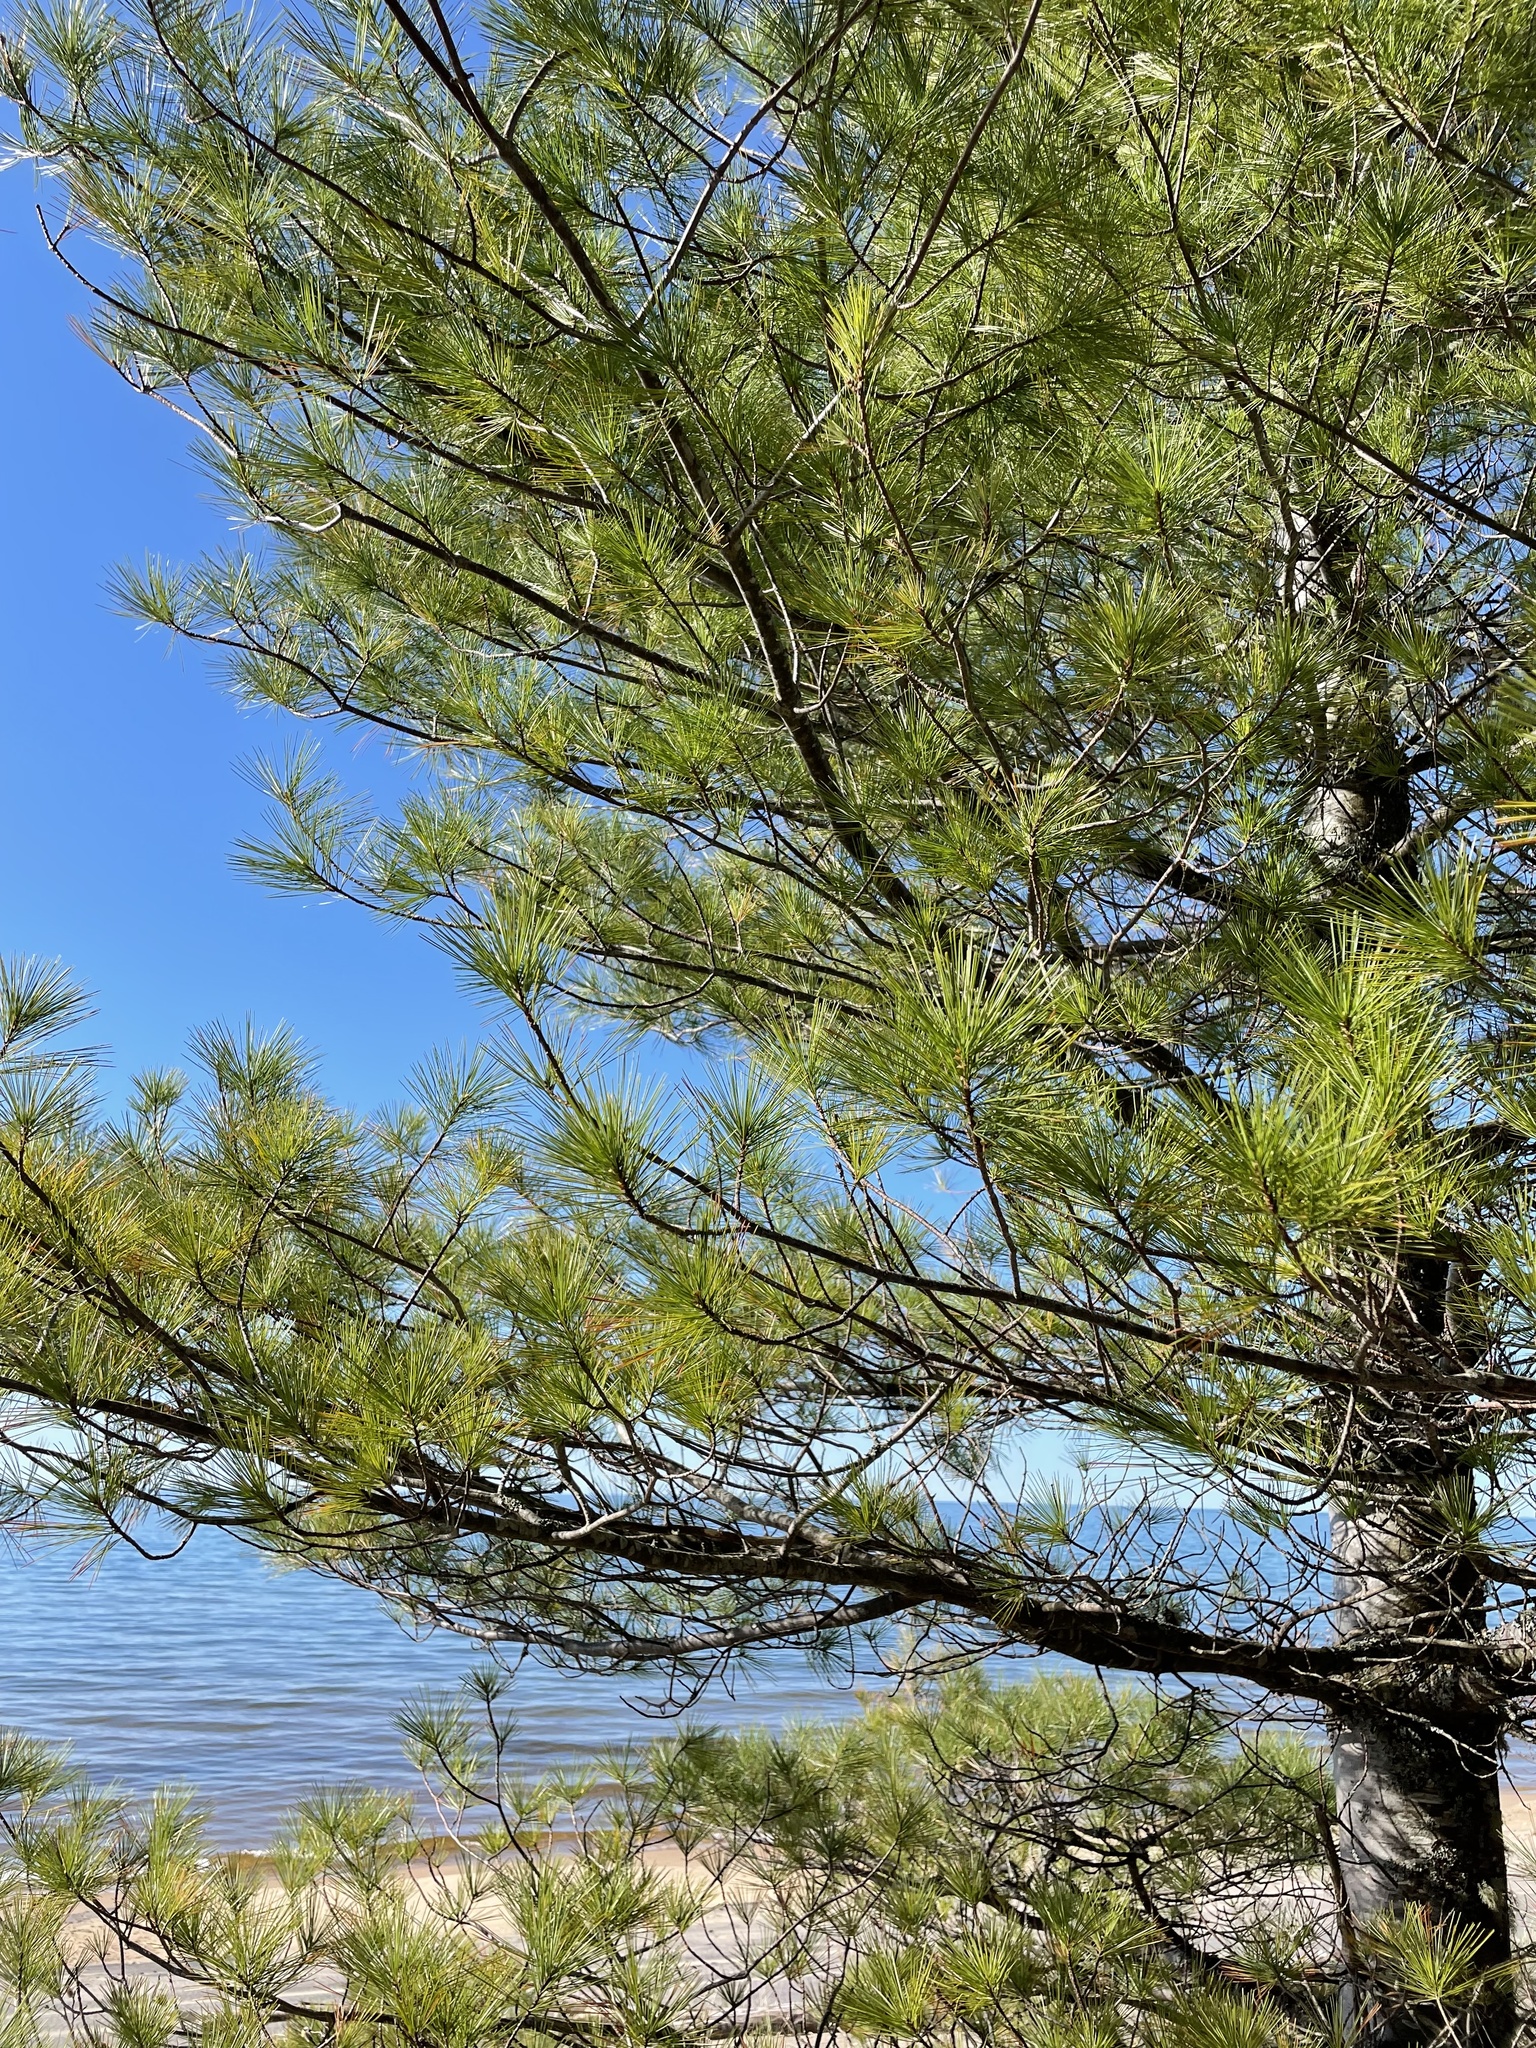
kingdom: Plantae
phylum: Tracheophyta
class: Pinopsida
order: Pinales
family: Pinaceae
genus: Pinus
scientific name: Pinus strobus
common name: Weymouth pine
